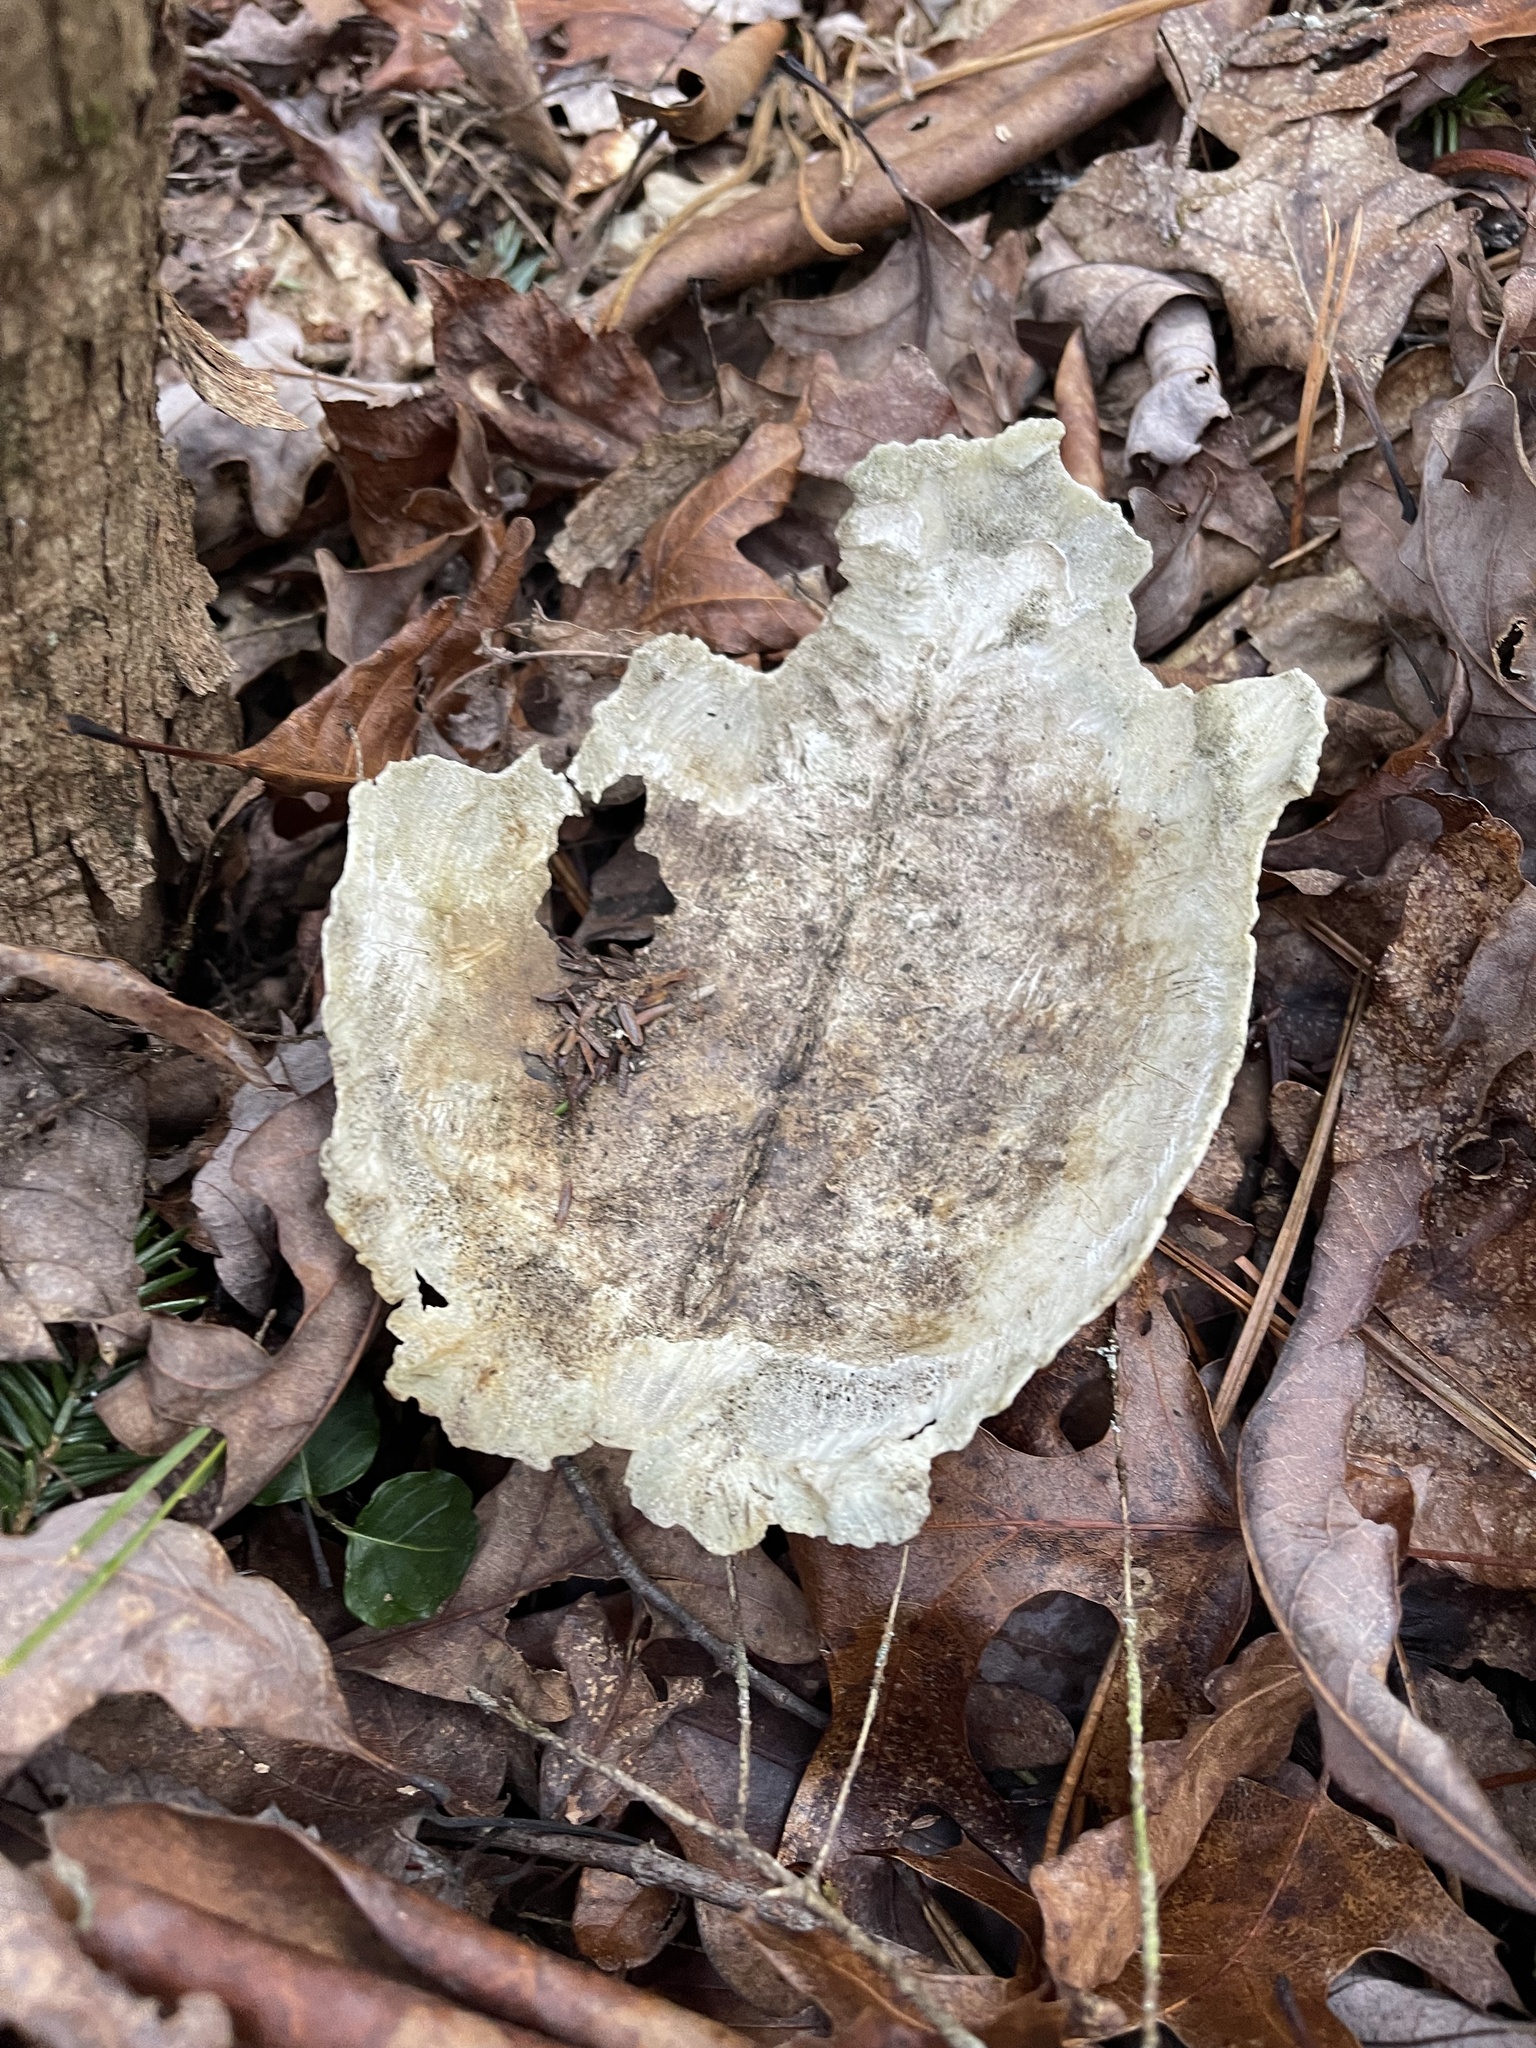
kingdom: Animalia
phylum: Chordata
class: Testudines
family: Emydidae
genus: Terrapene
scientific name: Terrapene carolina
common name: Common box turtle
